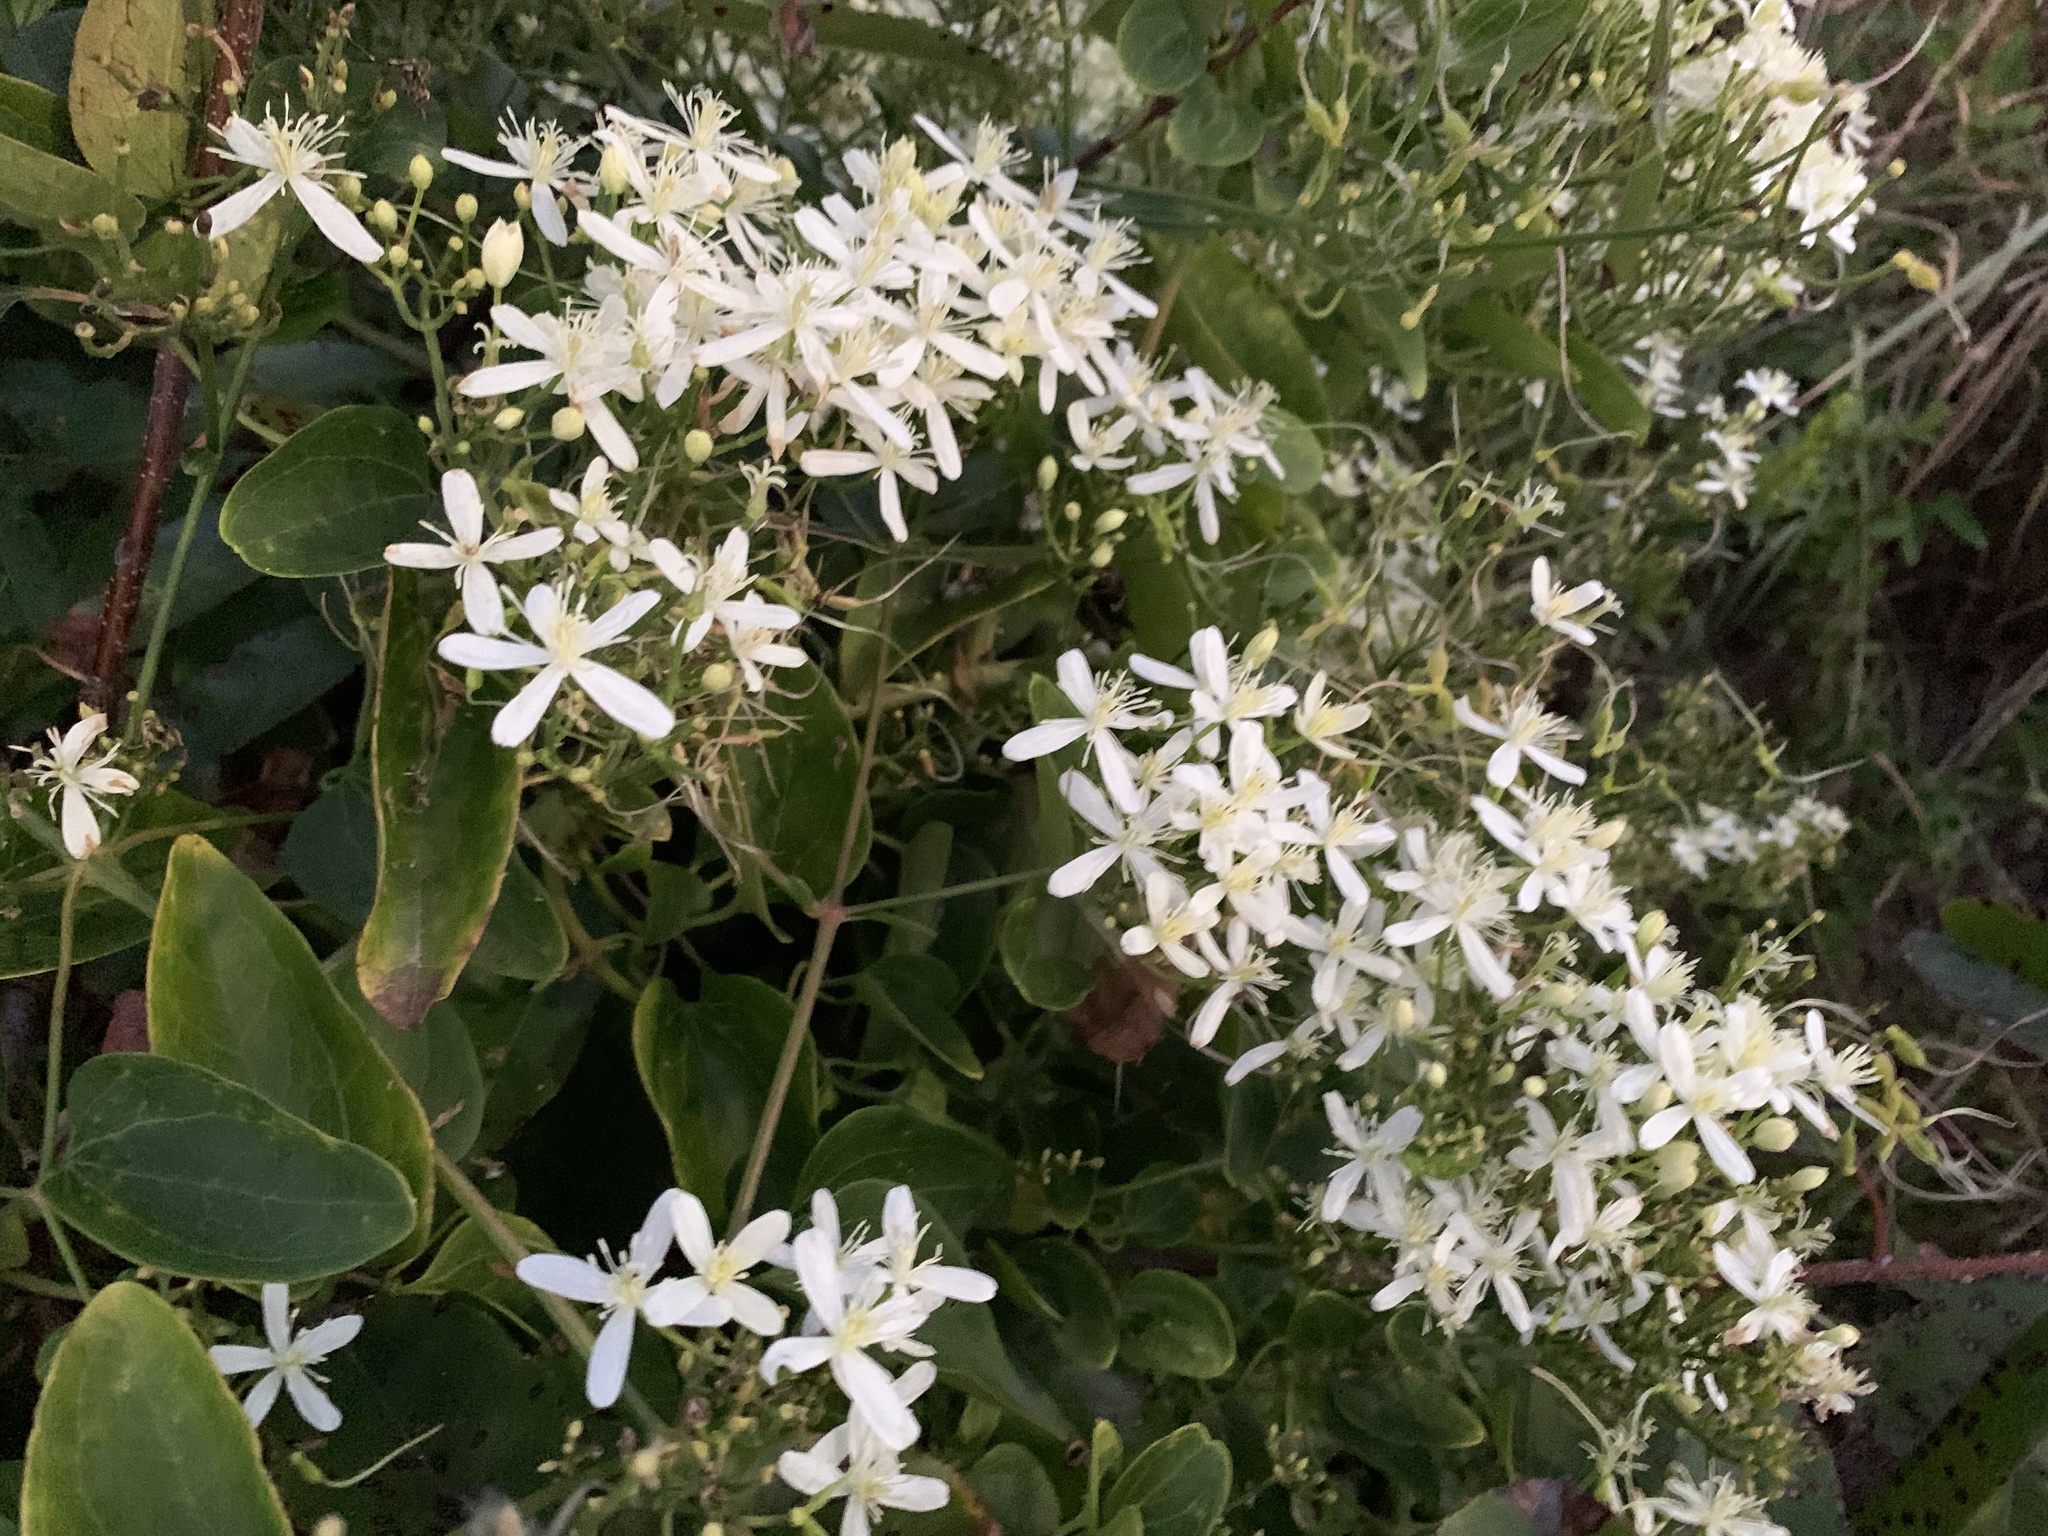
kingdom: Plantae
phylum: Tracheophyta
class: Magnoliopsida
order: Ranunculales
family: Ranunculaceae
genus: Clematis
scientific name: Clematis terniflora
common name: Sweet autumn clematis
